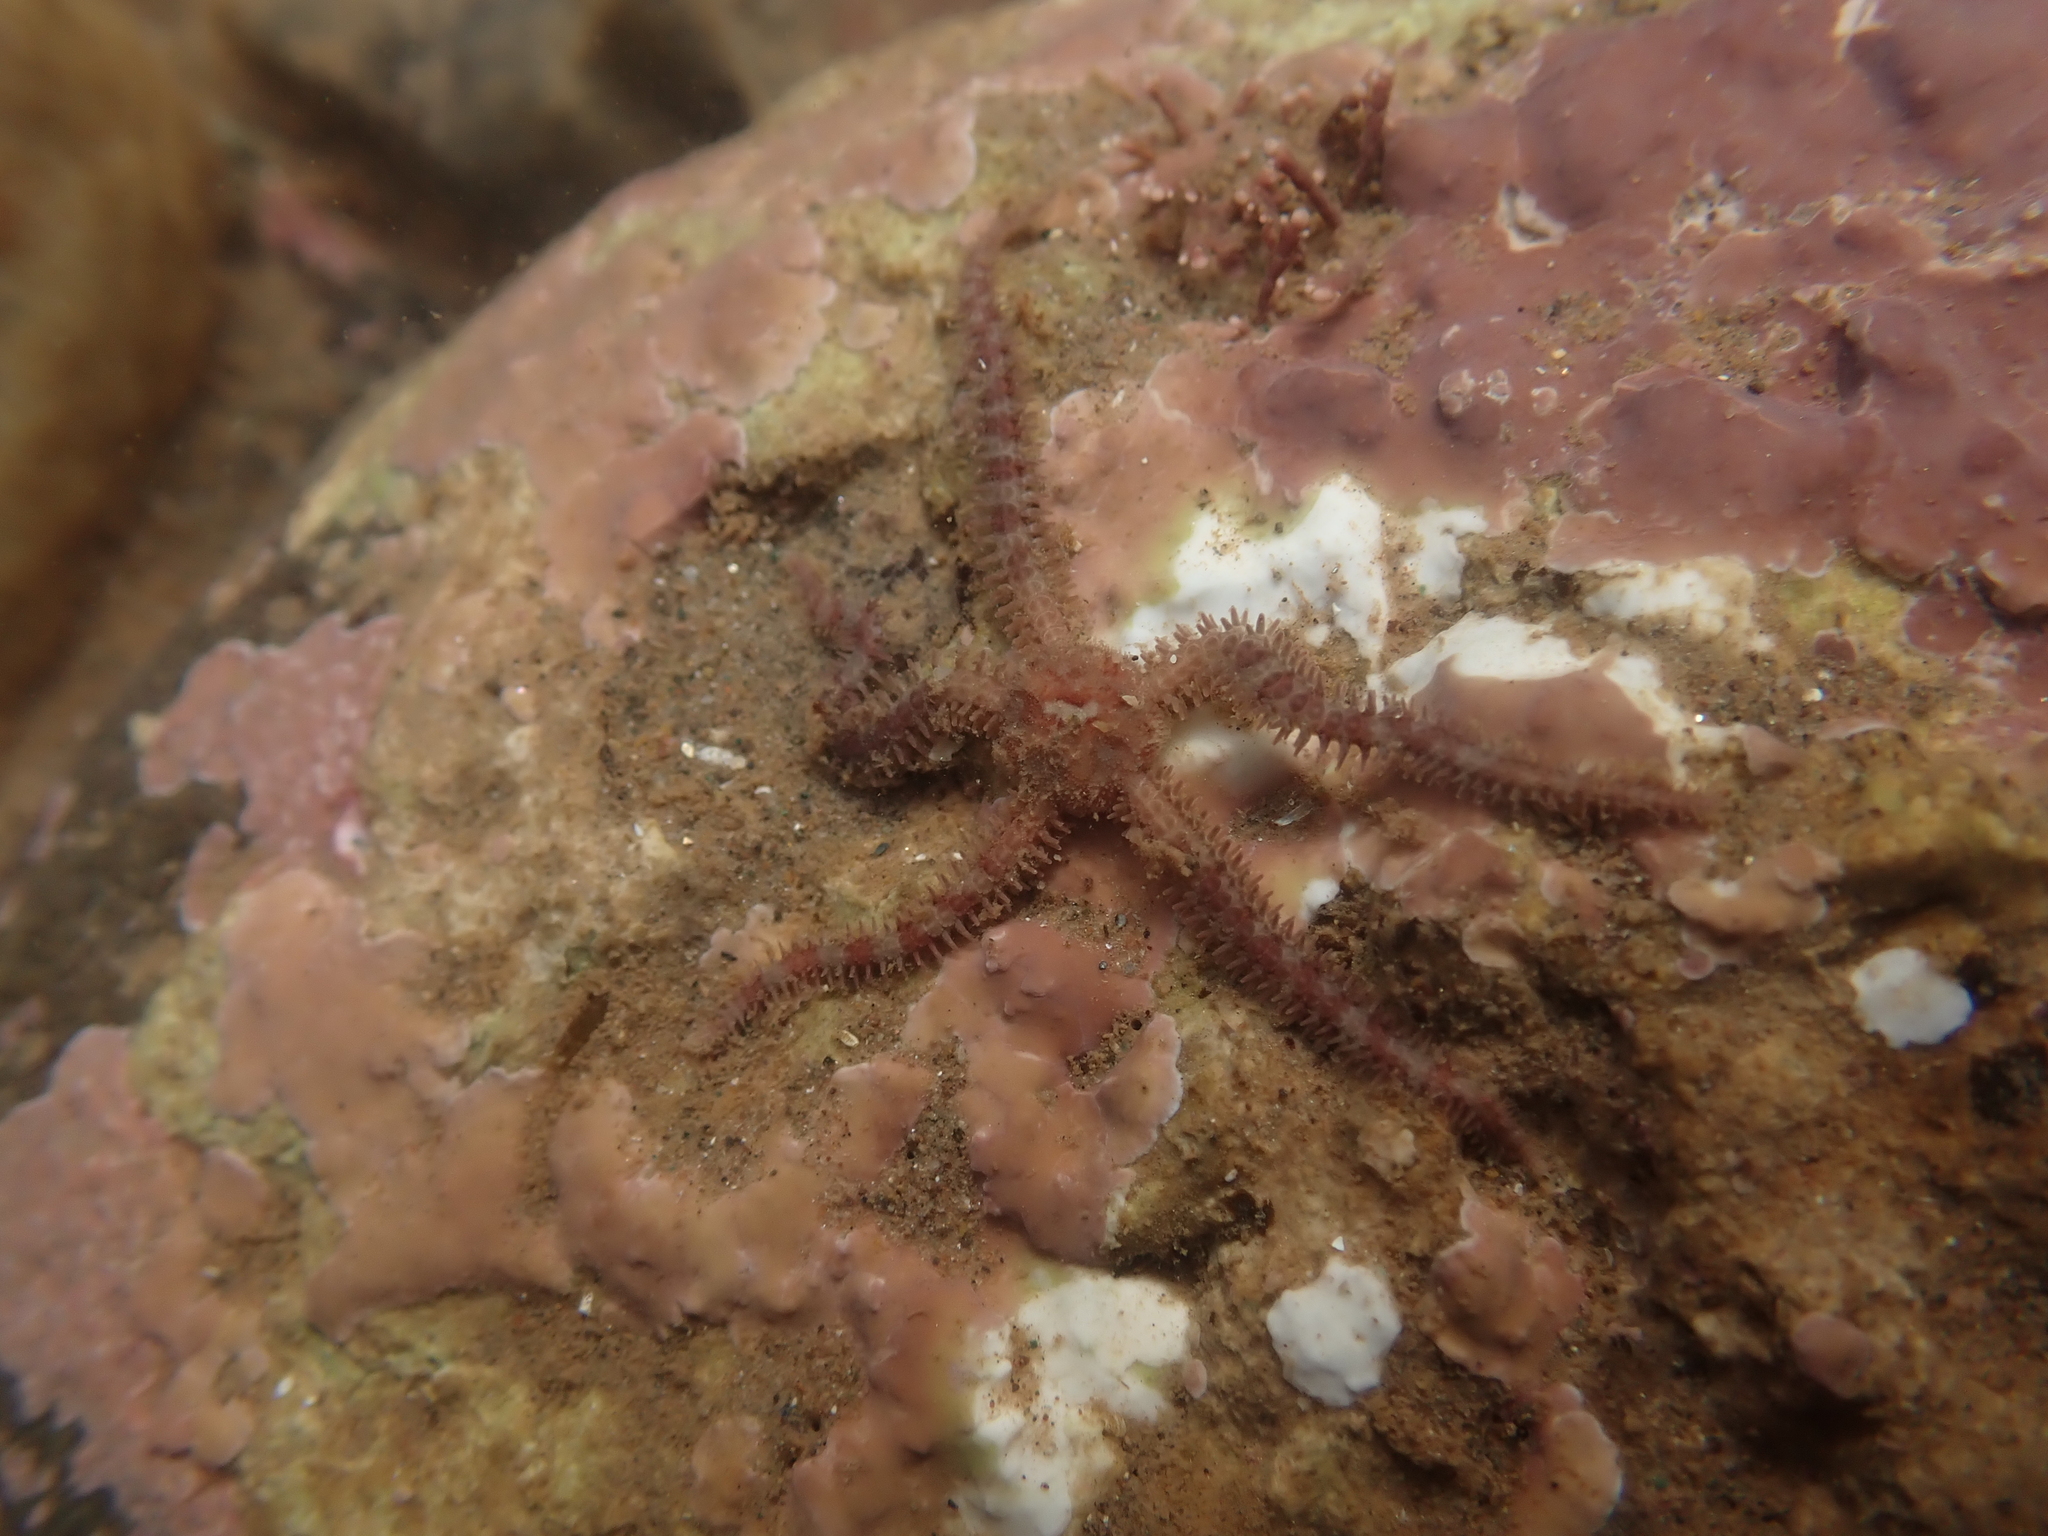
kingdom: Animalia
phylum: Echinodermata
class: Ophiuroidea
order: Amphilepidida
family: Ophiopholidae
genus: Ophiopholis
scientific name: Ophiopholis aculeata
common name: Crevice brittlestar
